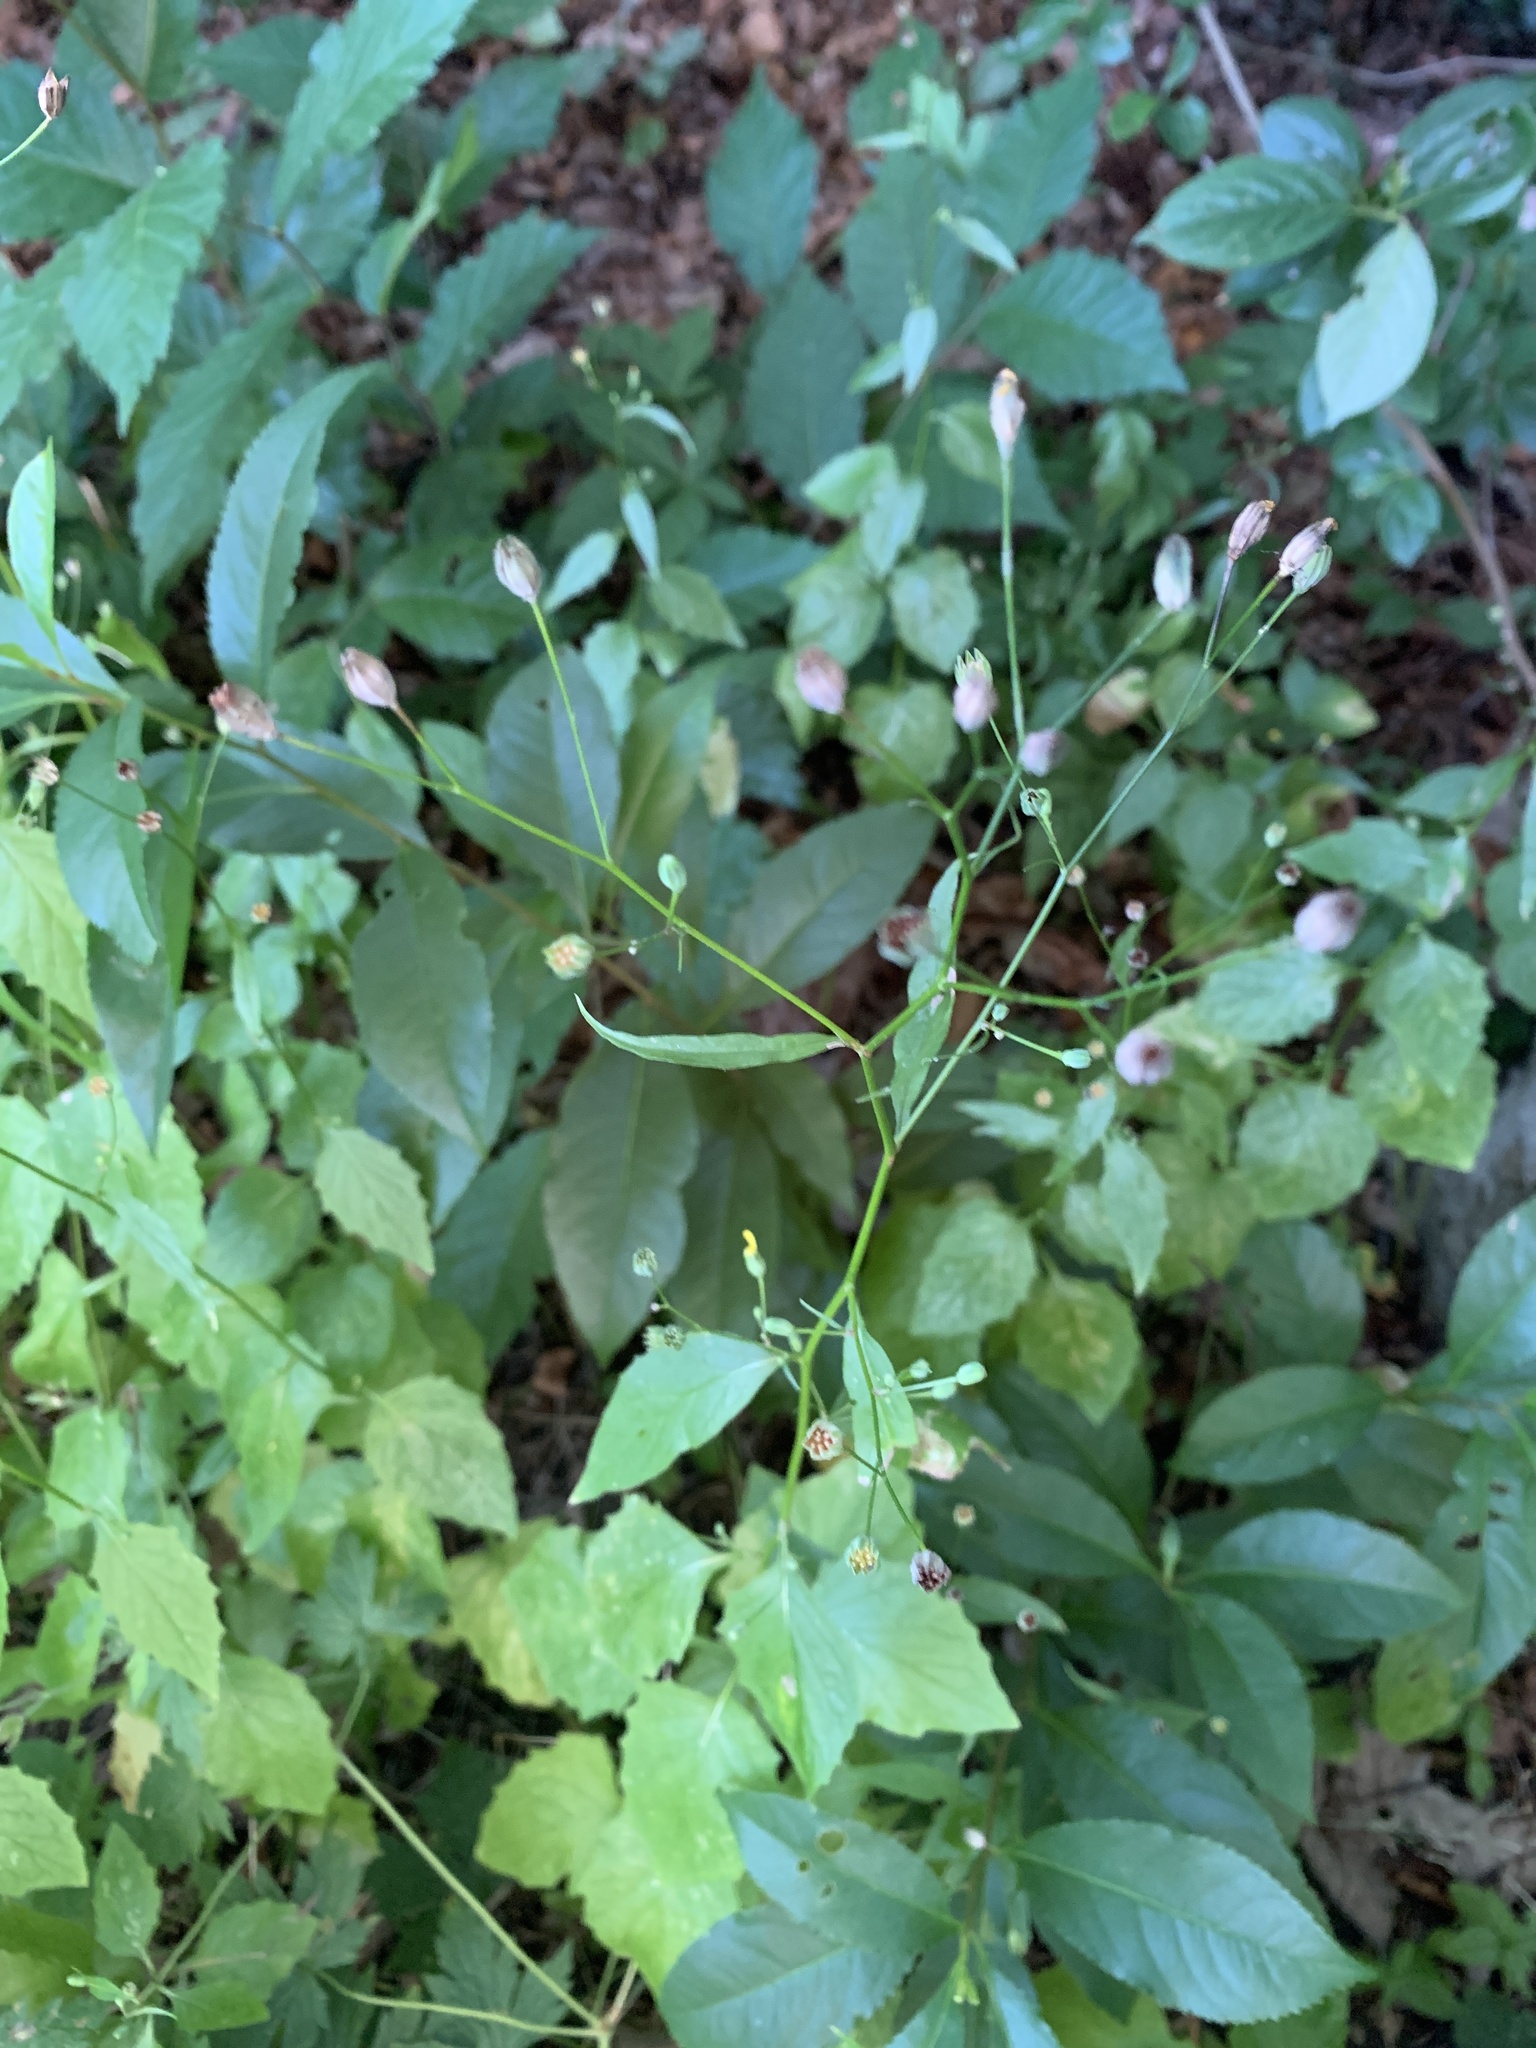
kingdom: Plantae
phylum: Tracheophyta
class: Magnoliopsida
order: Asterales
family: Asteraceae
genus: Lapsana
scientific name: Lapsana communis
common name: Nipplewort
